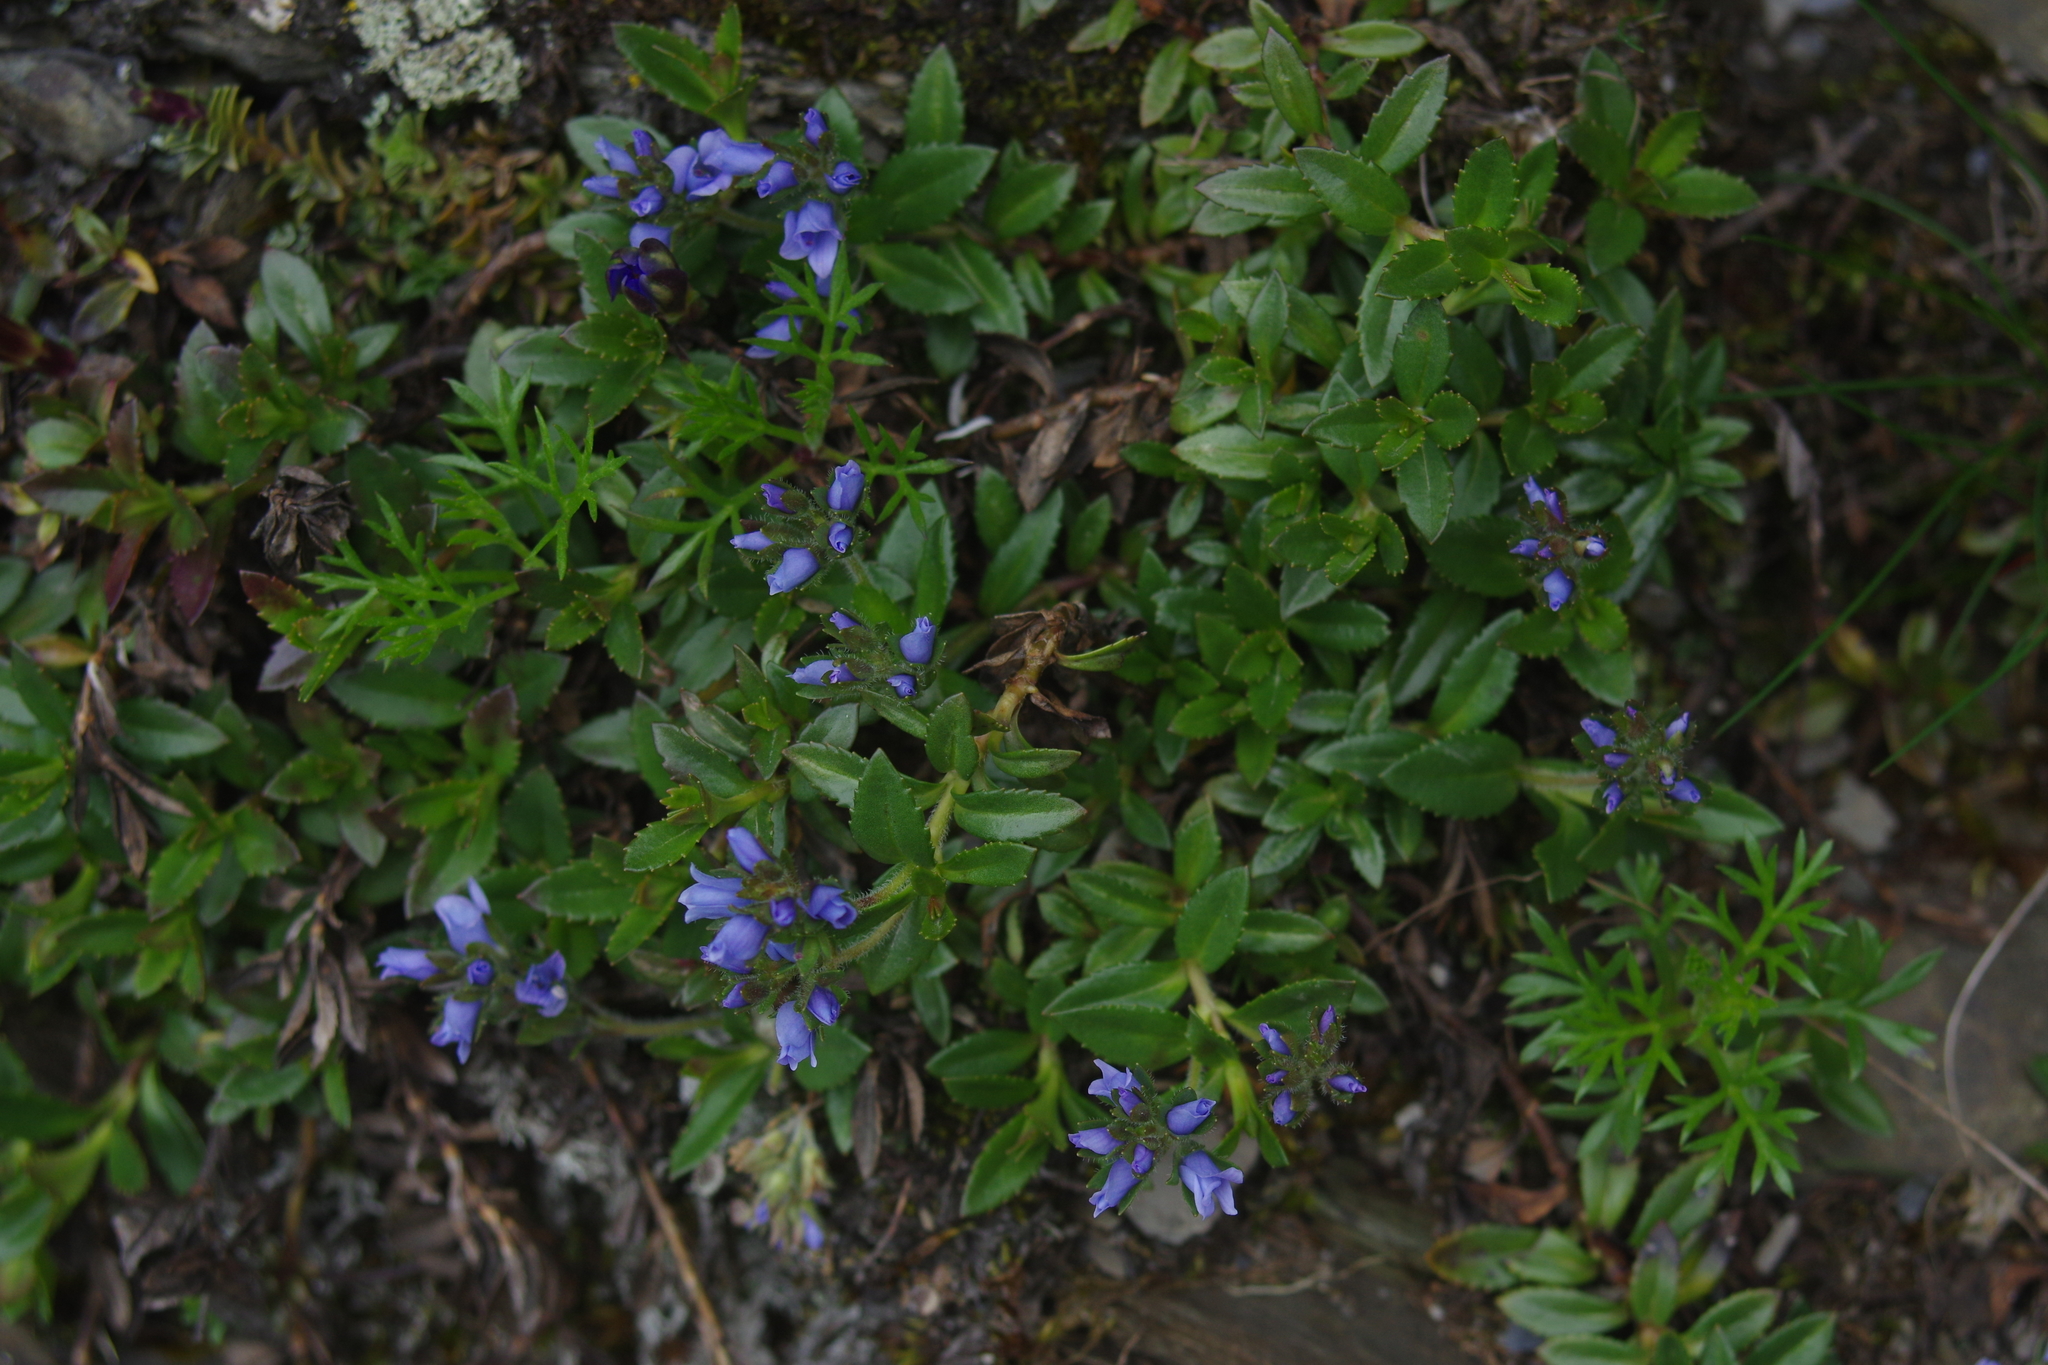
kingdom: Plantae
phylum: Tracheophyta
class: Magnoliopsida
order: Lamiales
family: Plantaginaceae
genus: Veronica
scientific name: Veronica morrisonicola
